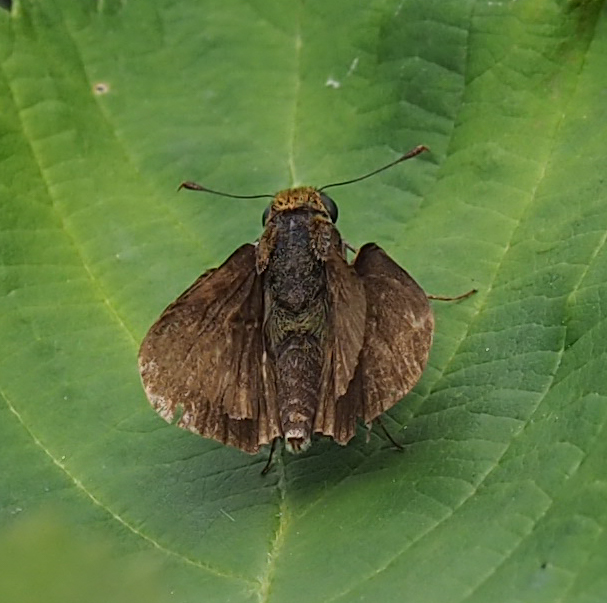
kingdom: Animalia
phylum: Arthropoda
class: Insecta
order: Lepidoptera
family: Hesperiidae
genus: Euphyes
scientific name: Euphyes vestris
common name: Dun skipper
